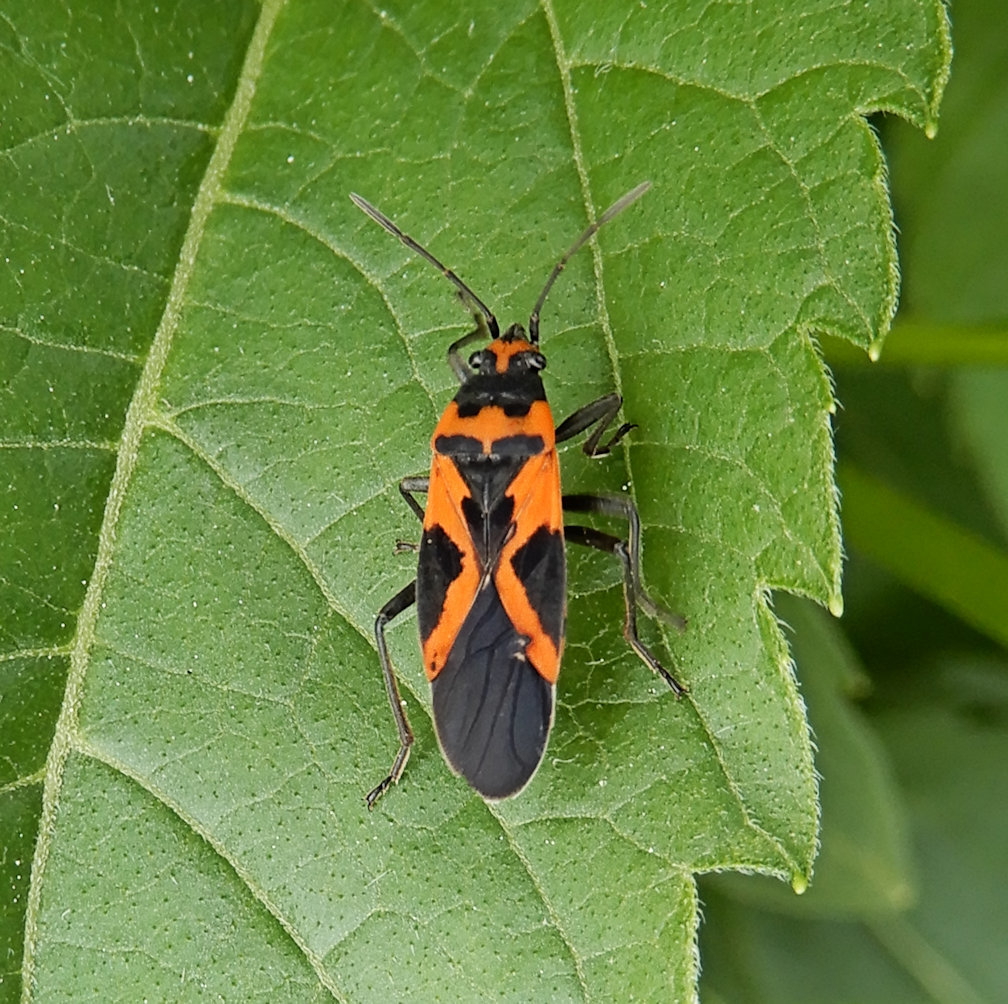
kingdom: Animalia
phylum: Arthropoda
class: Insecta
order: Hemiptera
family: Lygaeidae
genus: Lygaeus
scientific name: Lygaeus turcicus
